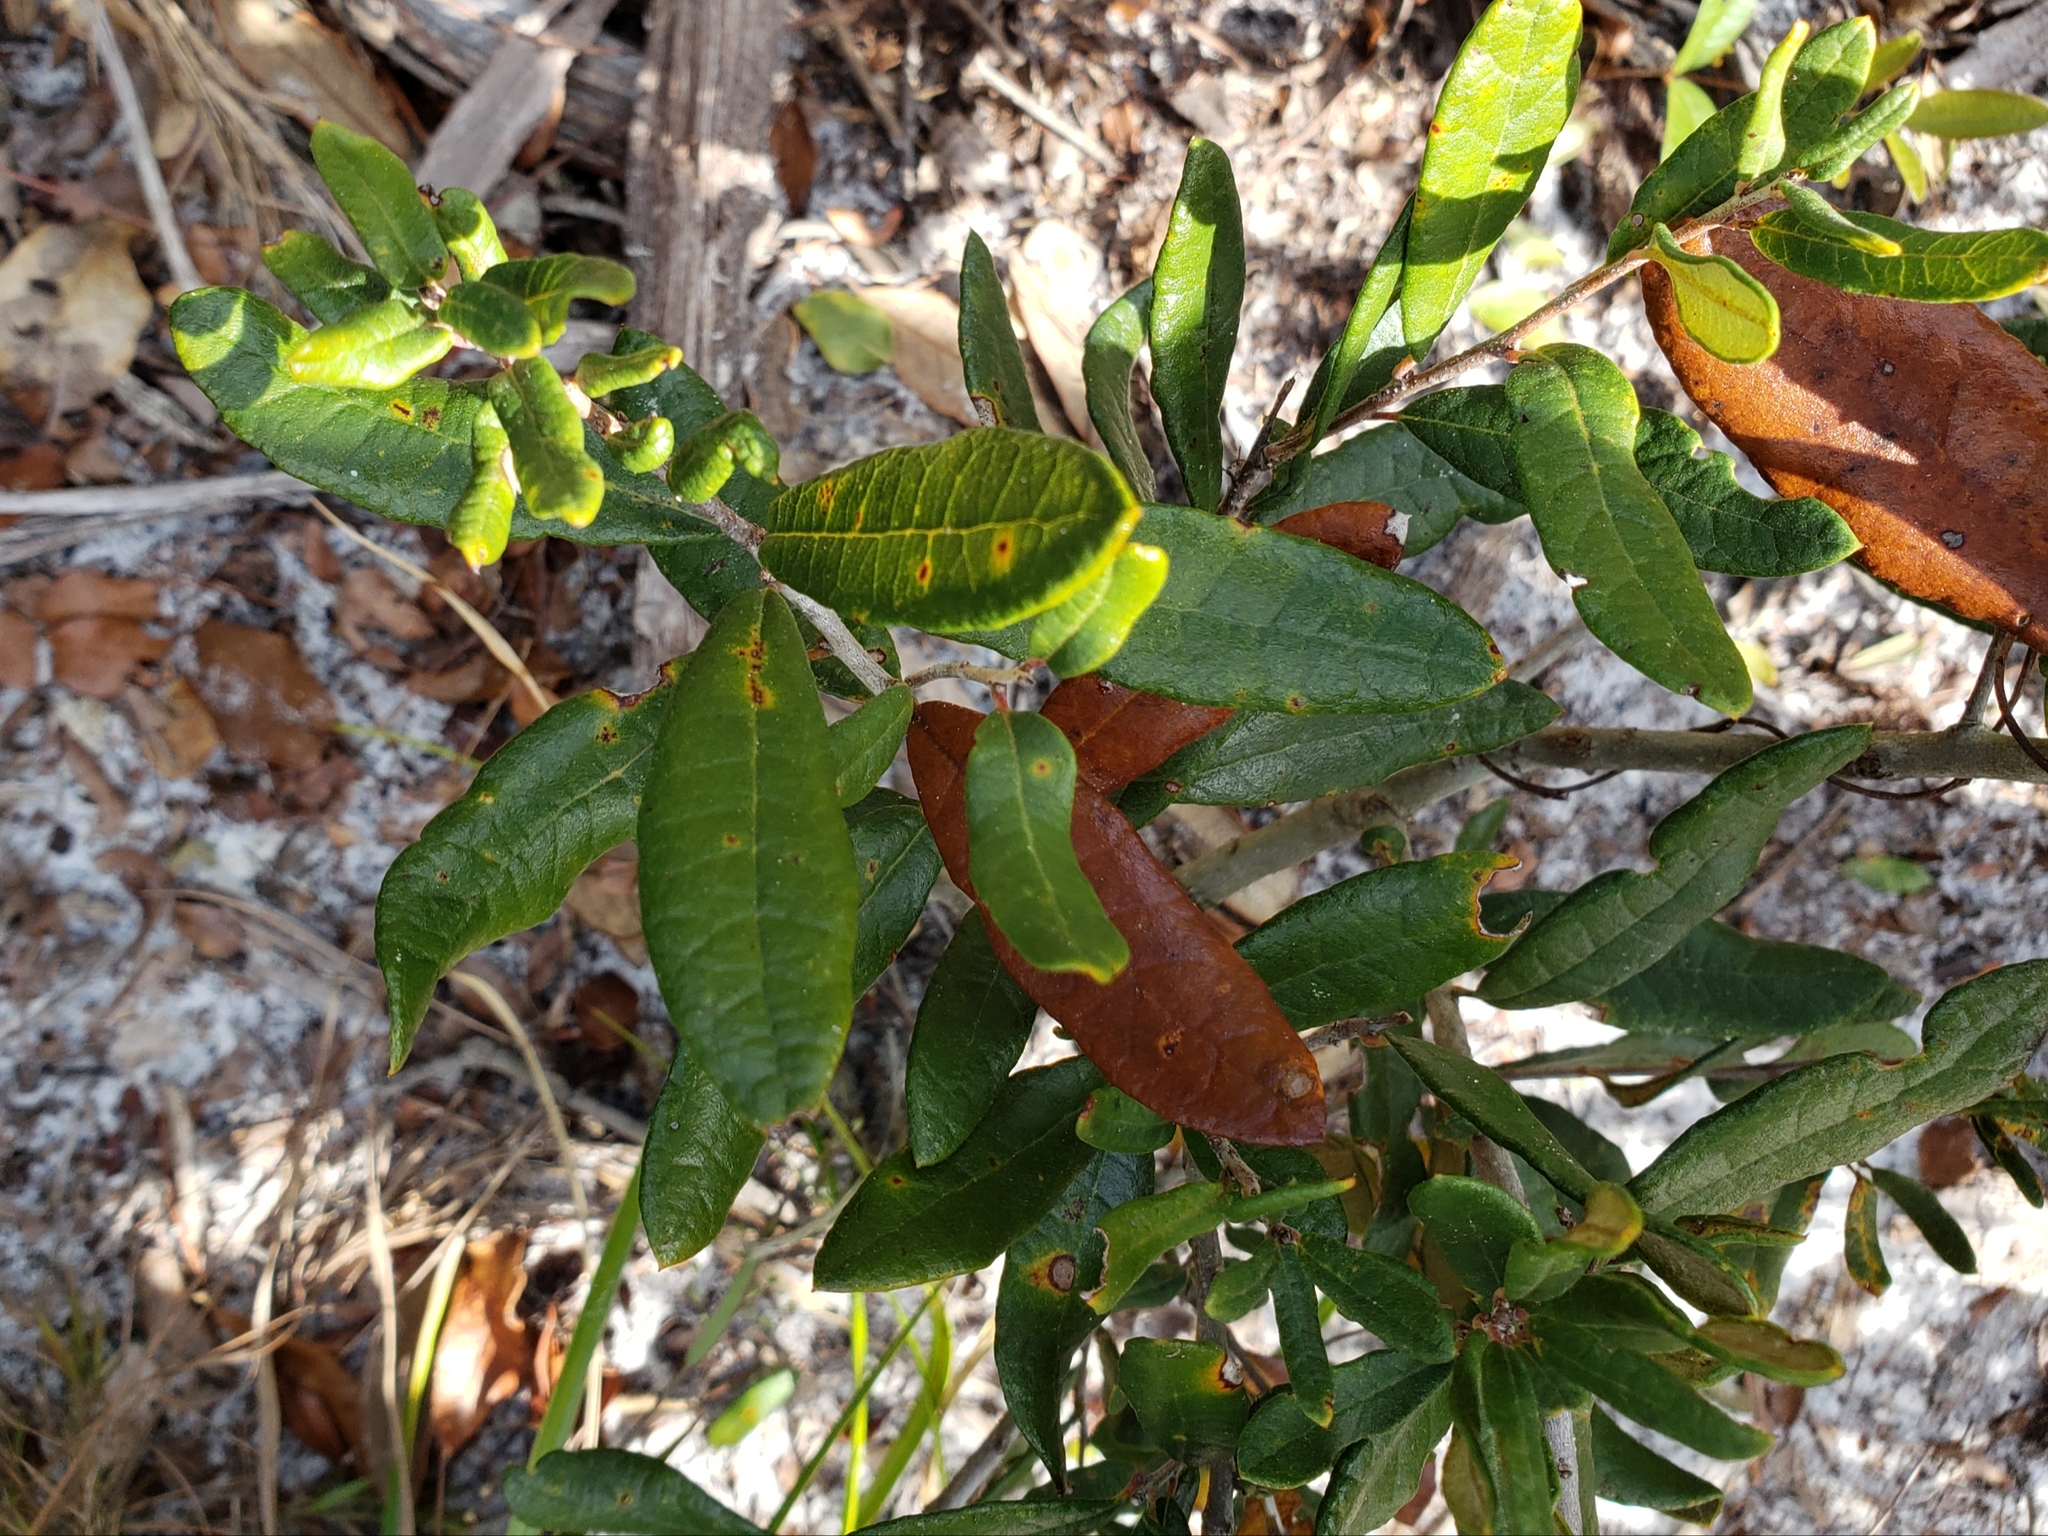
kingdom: Plantae
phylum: Tracheophyta
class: Magnoliopsida
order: Fagales
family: Fagaceae
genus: Quercus
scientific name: Quercus geminata
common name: Sand live oak
